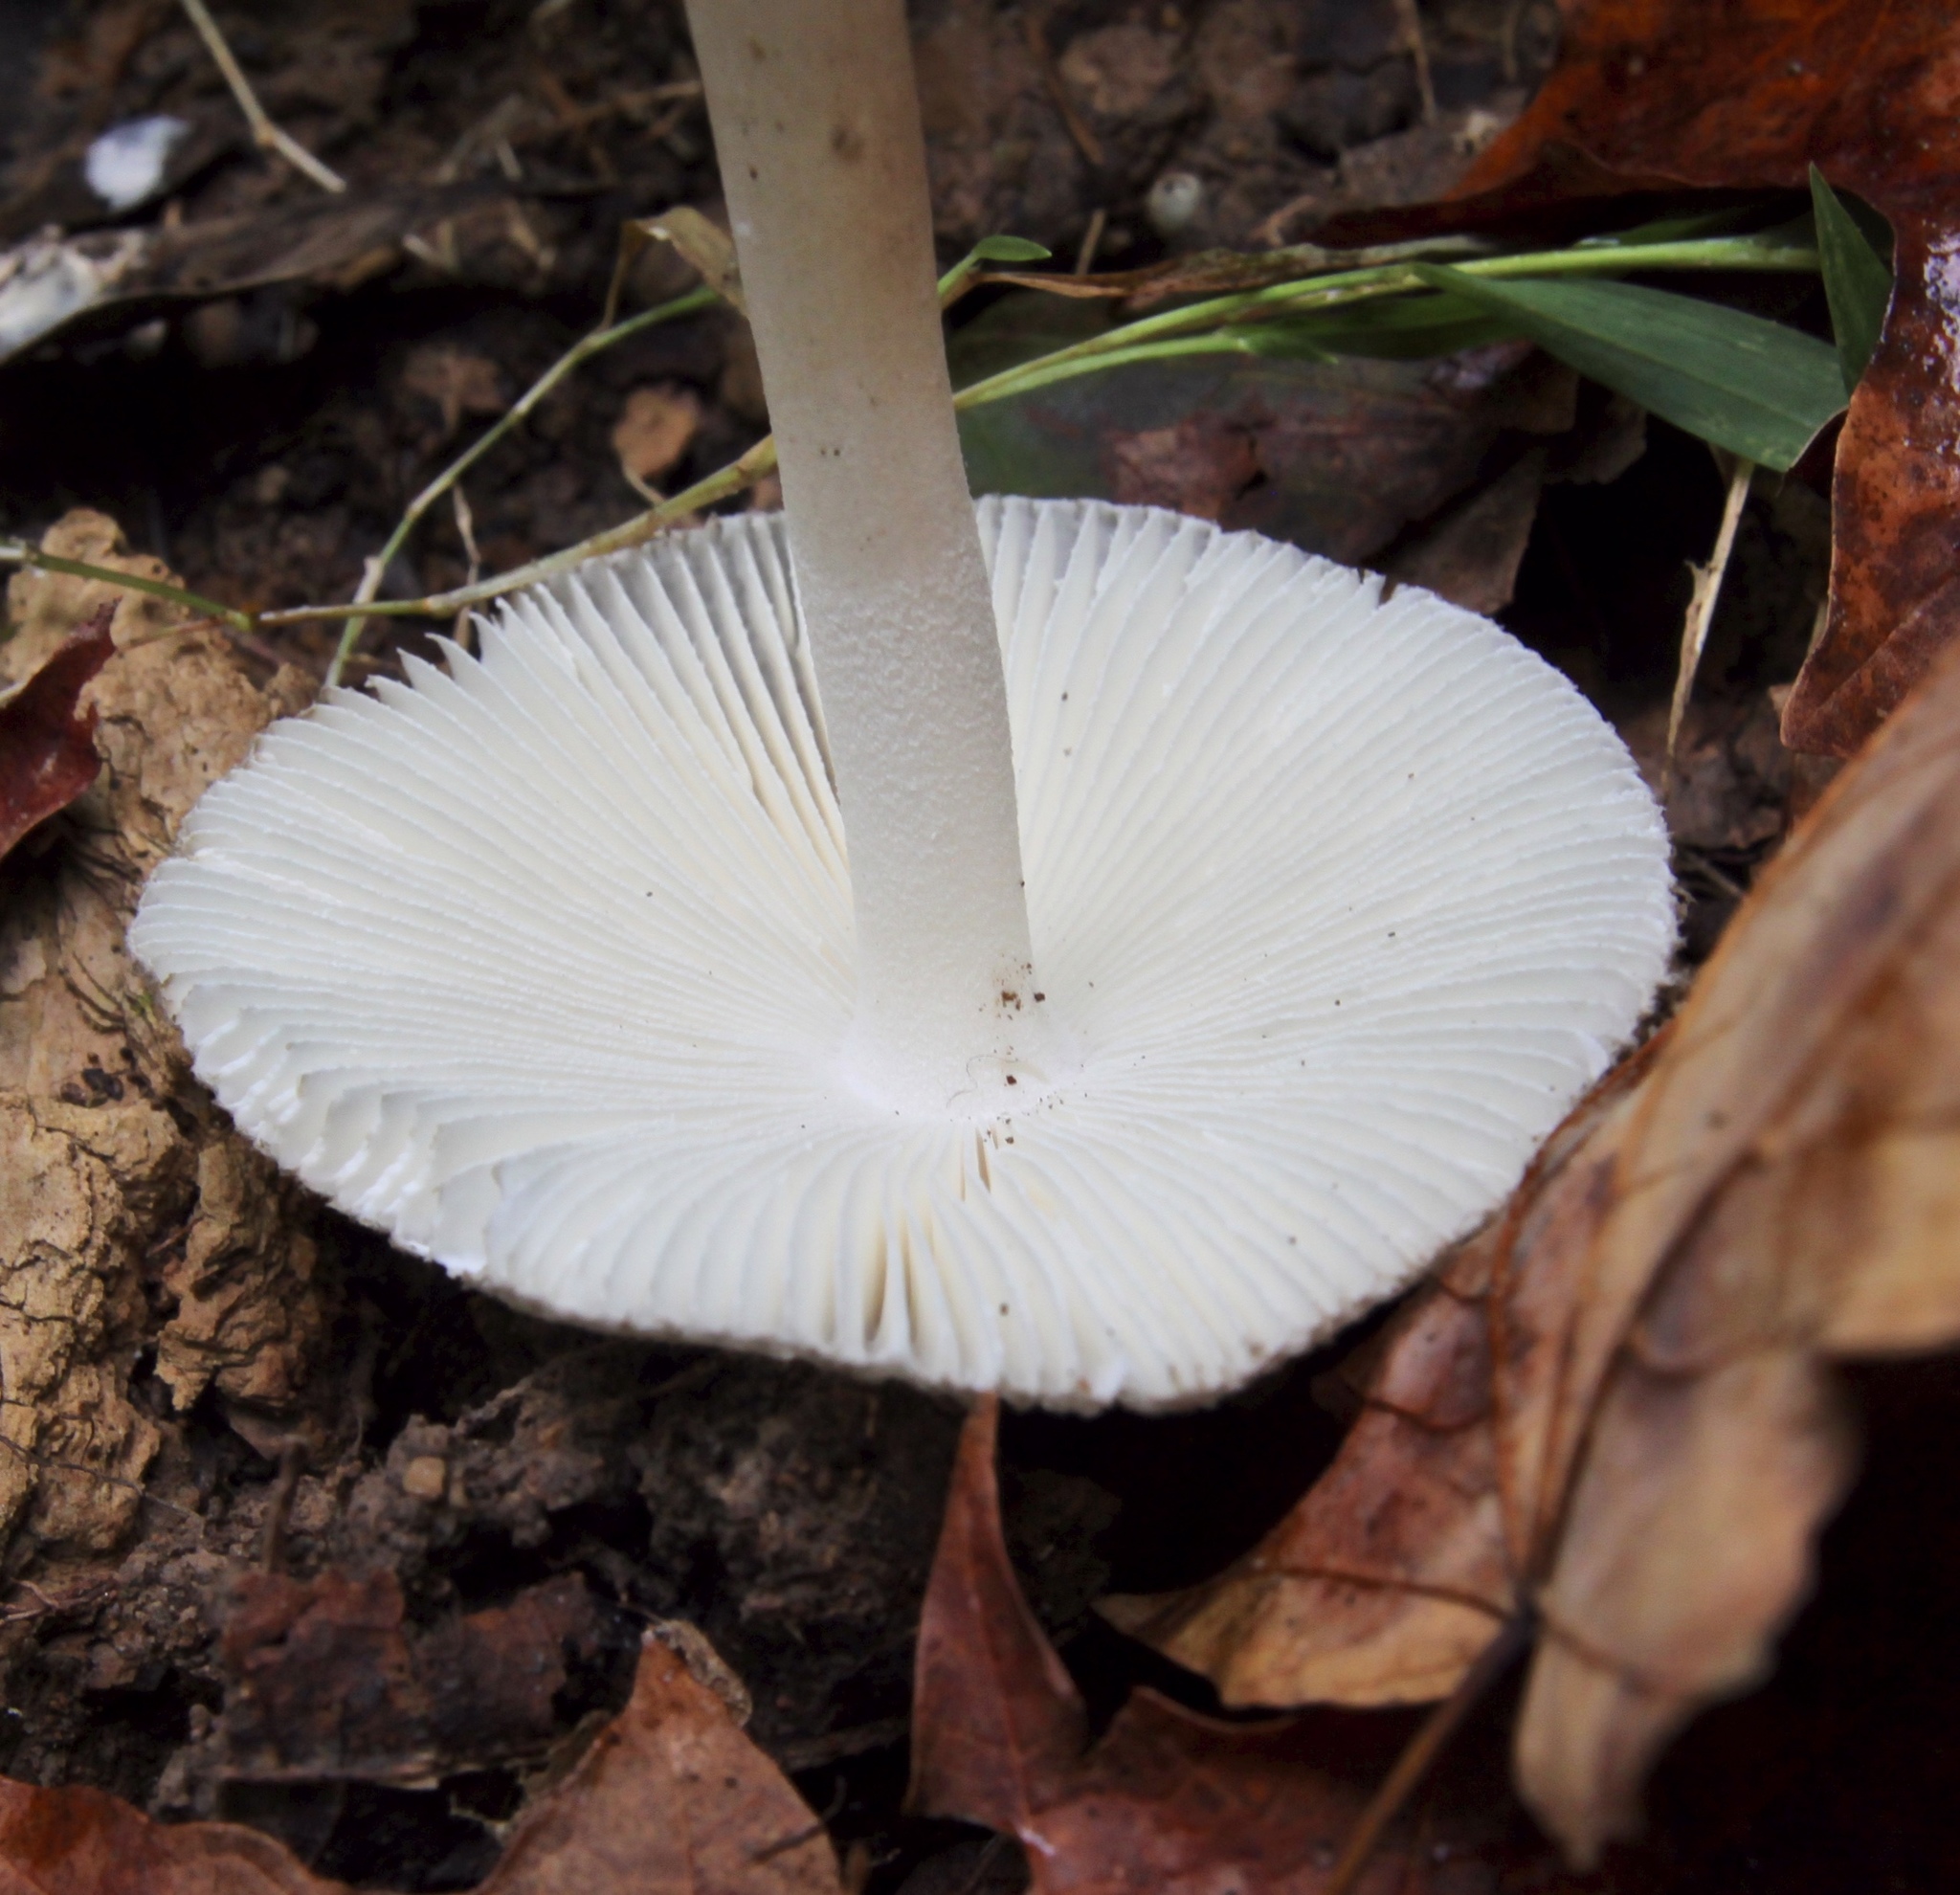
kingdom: Fungi
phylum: Basidiomycota
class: Agaricomycetes
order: Agaricales
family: Amanitaceae
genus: Amanita
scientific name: Amanita farinosa
